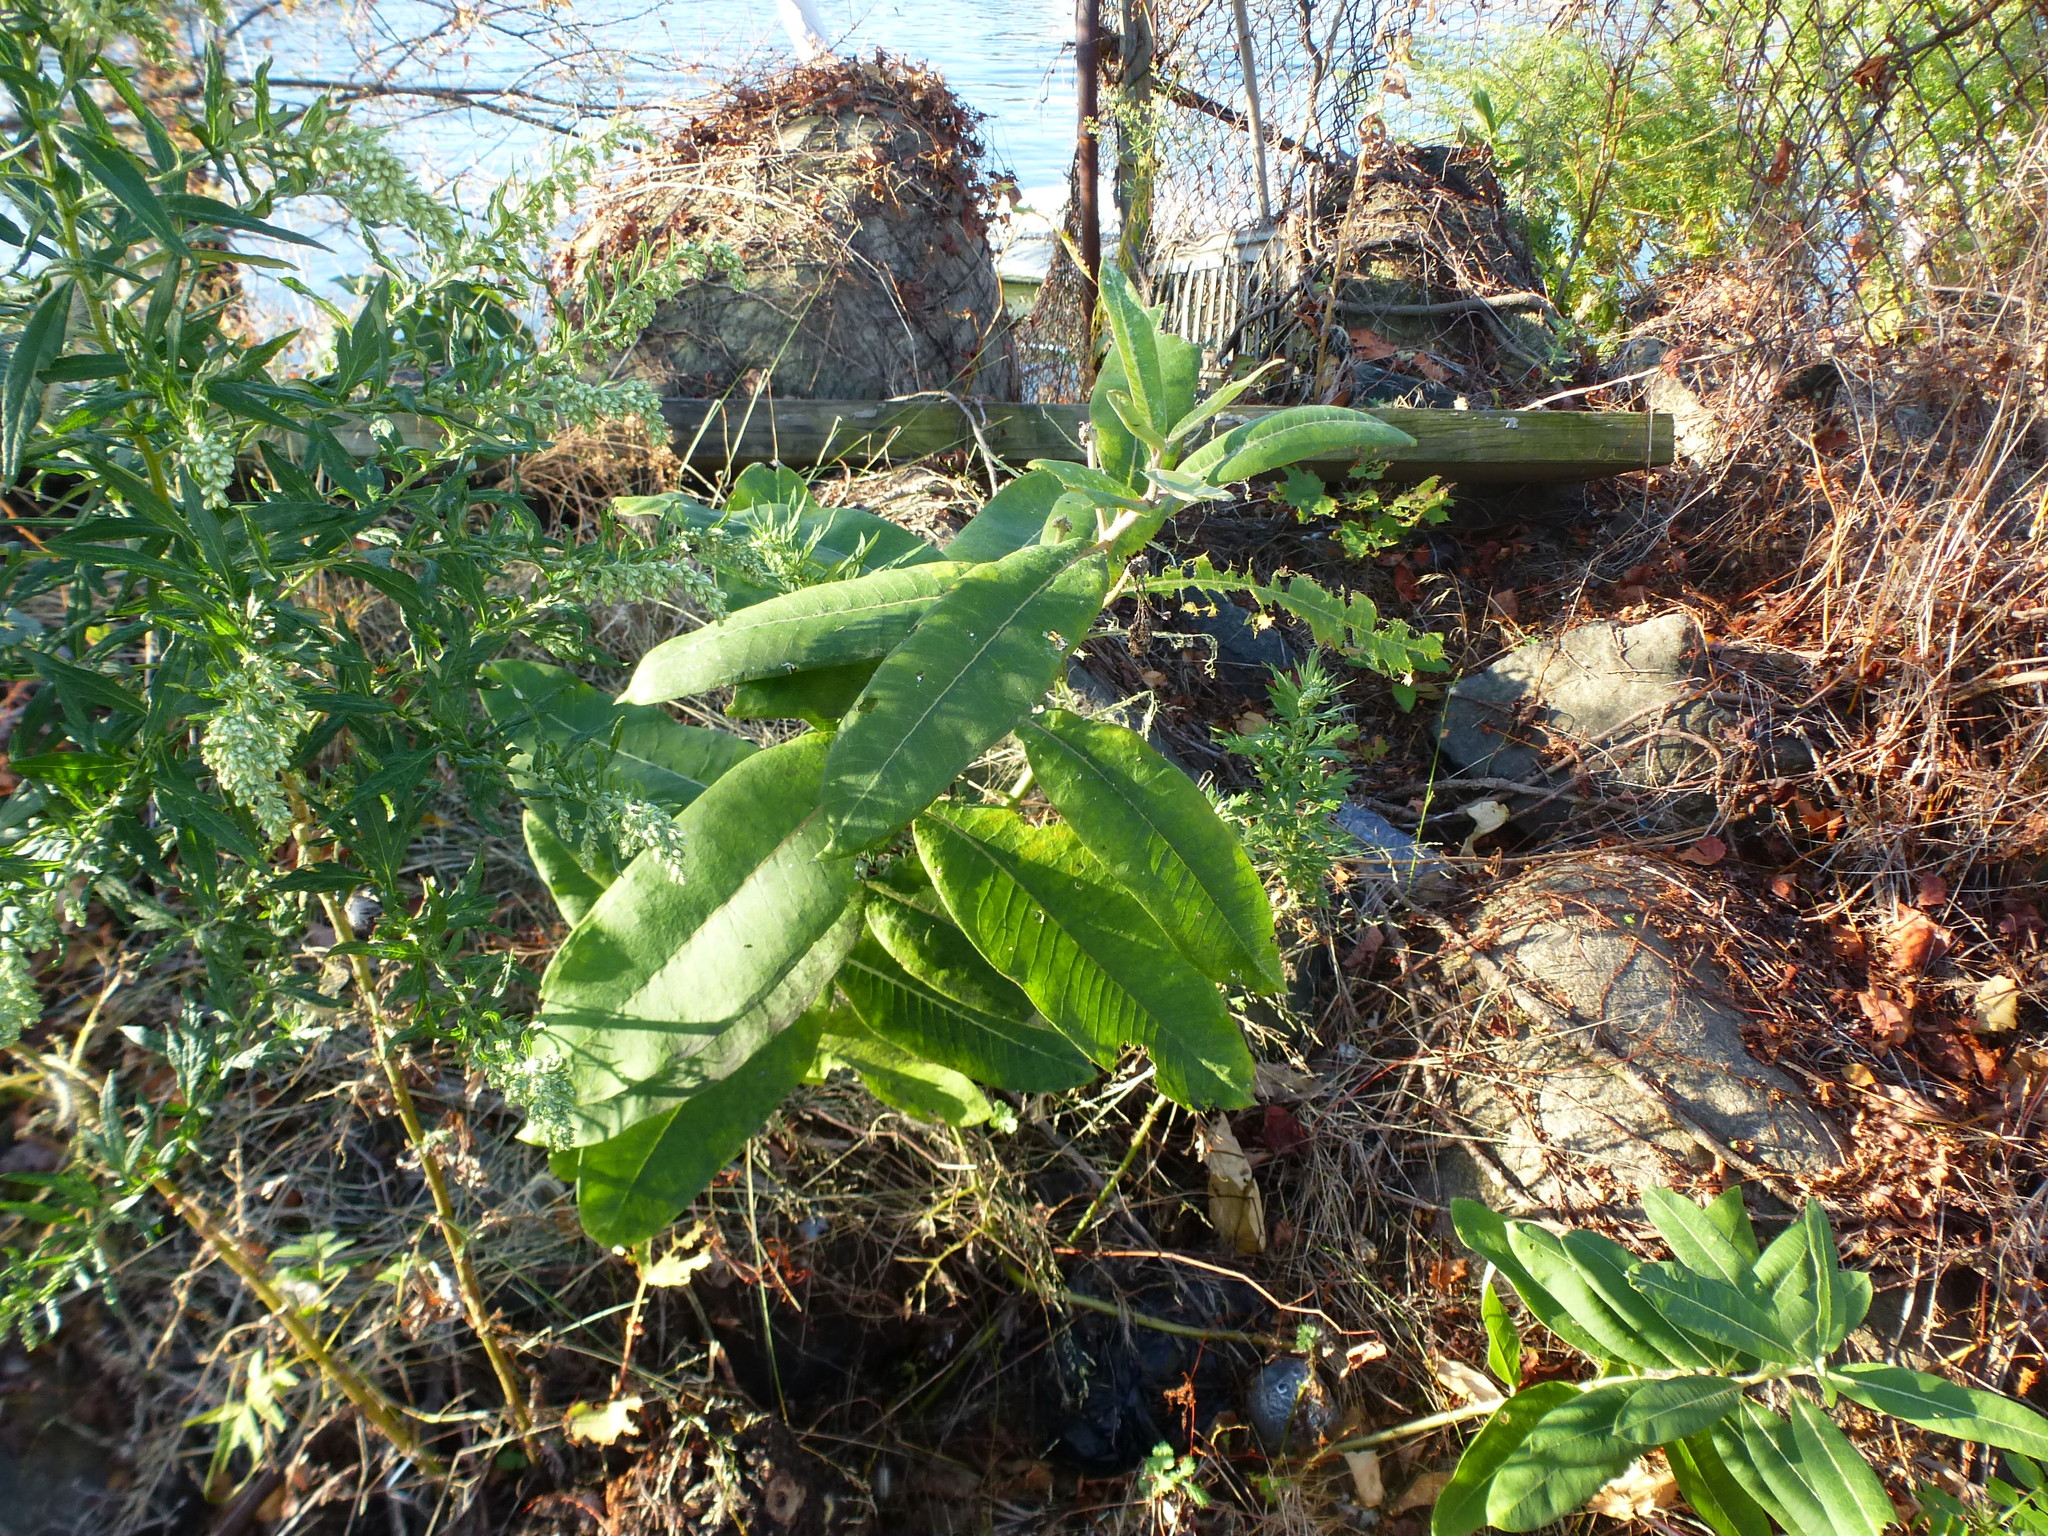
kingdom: Plantae
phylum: Tracheophyta
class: Magnoliopsida
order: Gentianales
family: Apocynaceae
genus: Asclepias
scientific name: Asclepias syriaca
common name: Common milkweed
